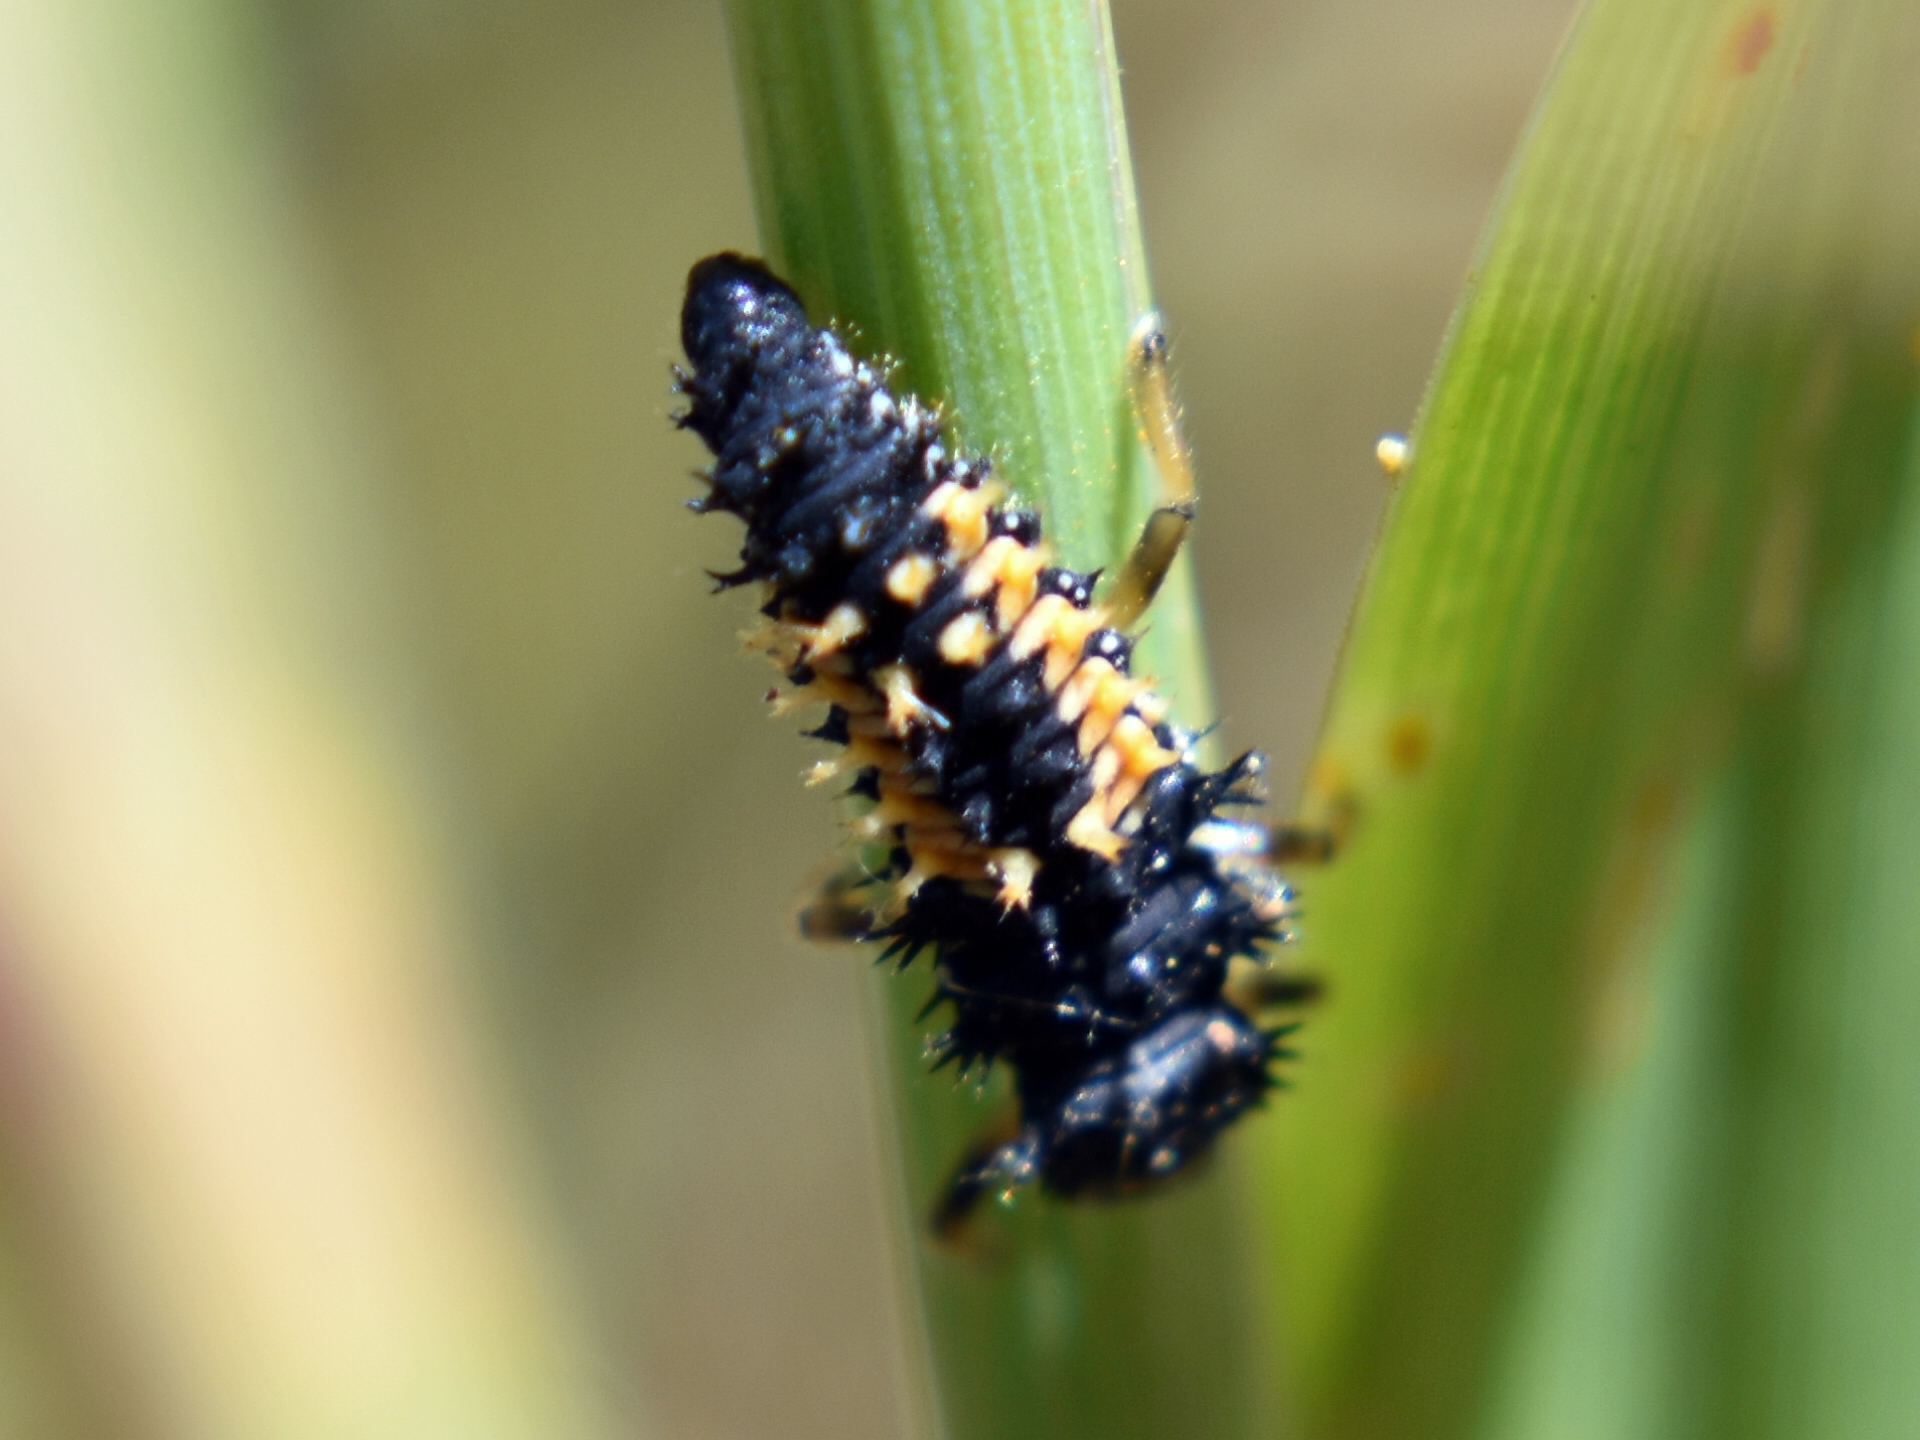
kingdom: Animalia
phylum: Arthropoda
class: Insecta
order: Coleoptera
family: Coccinellidae
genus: Harmonia
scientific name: Harmonia axyridis
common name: Harlequin ladybird
